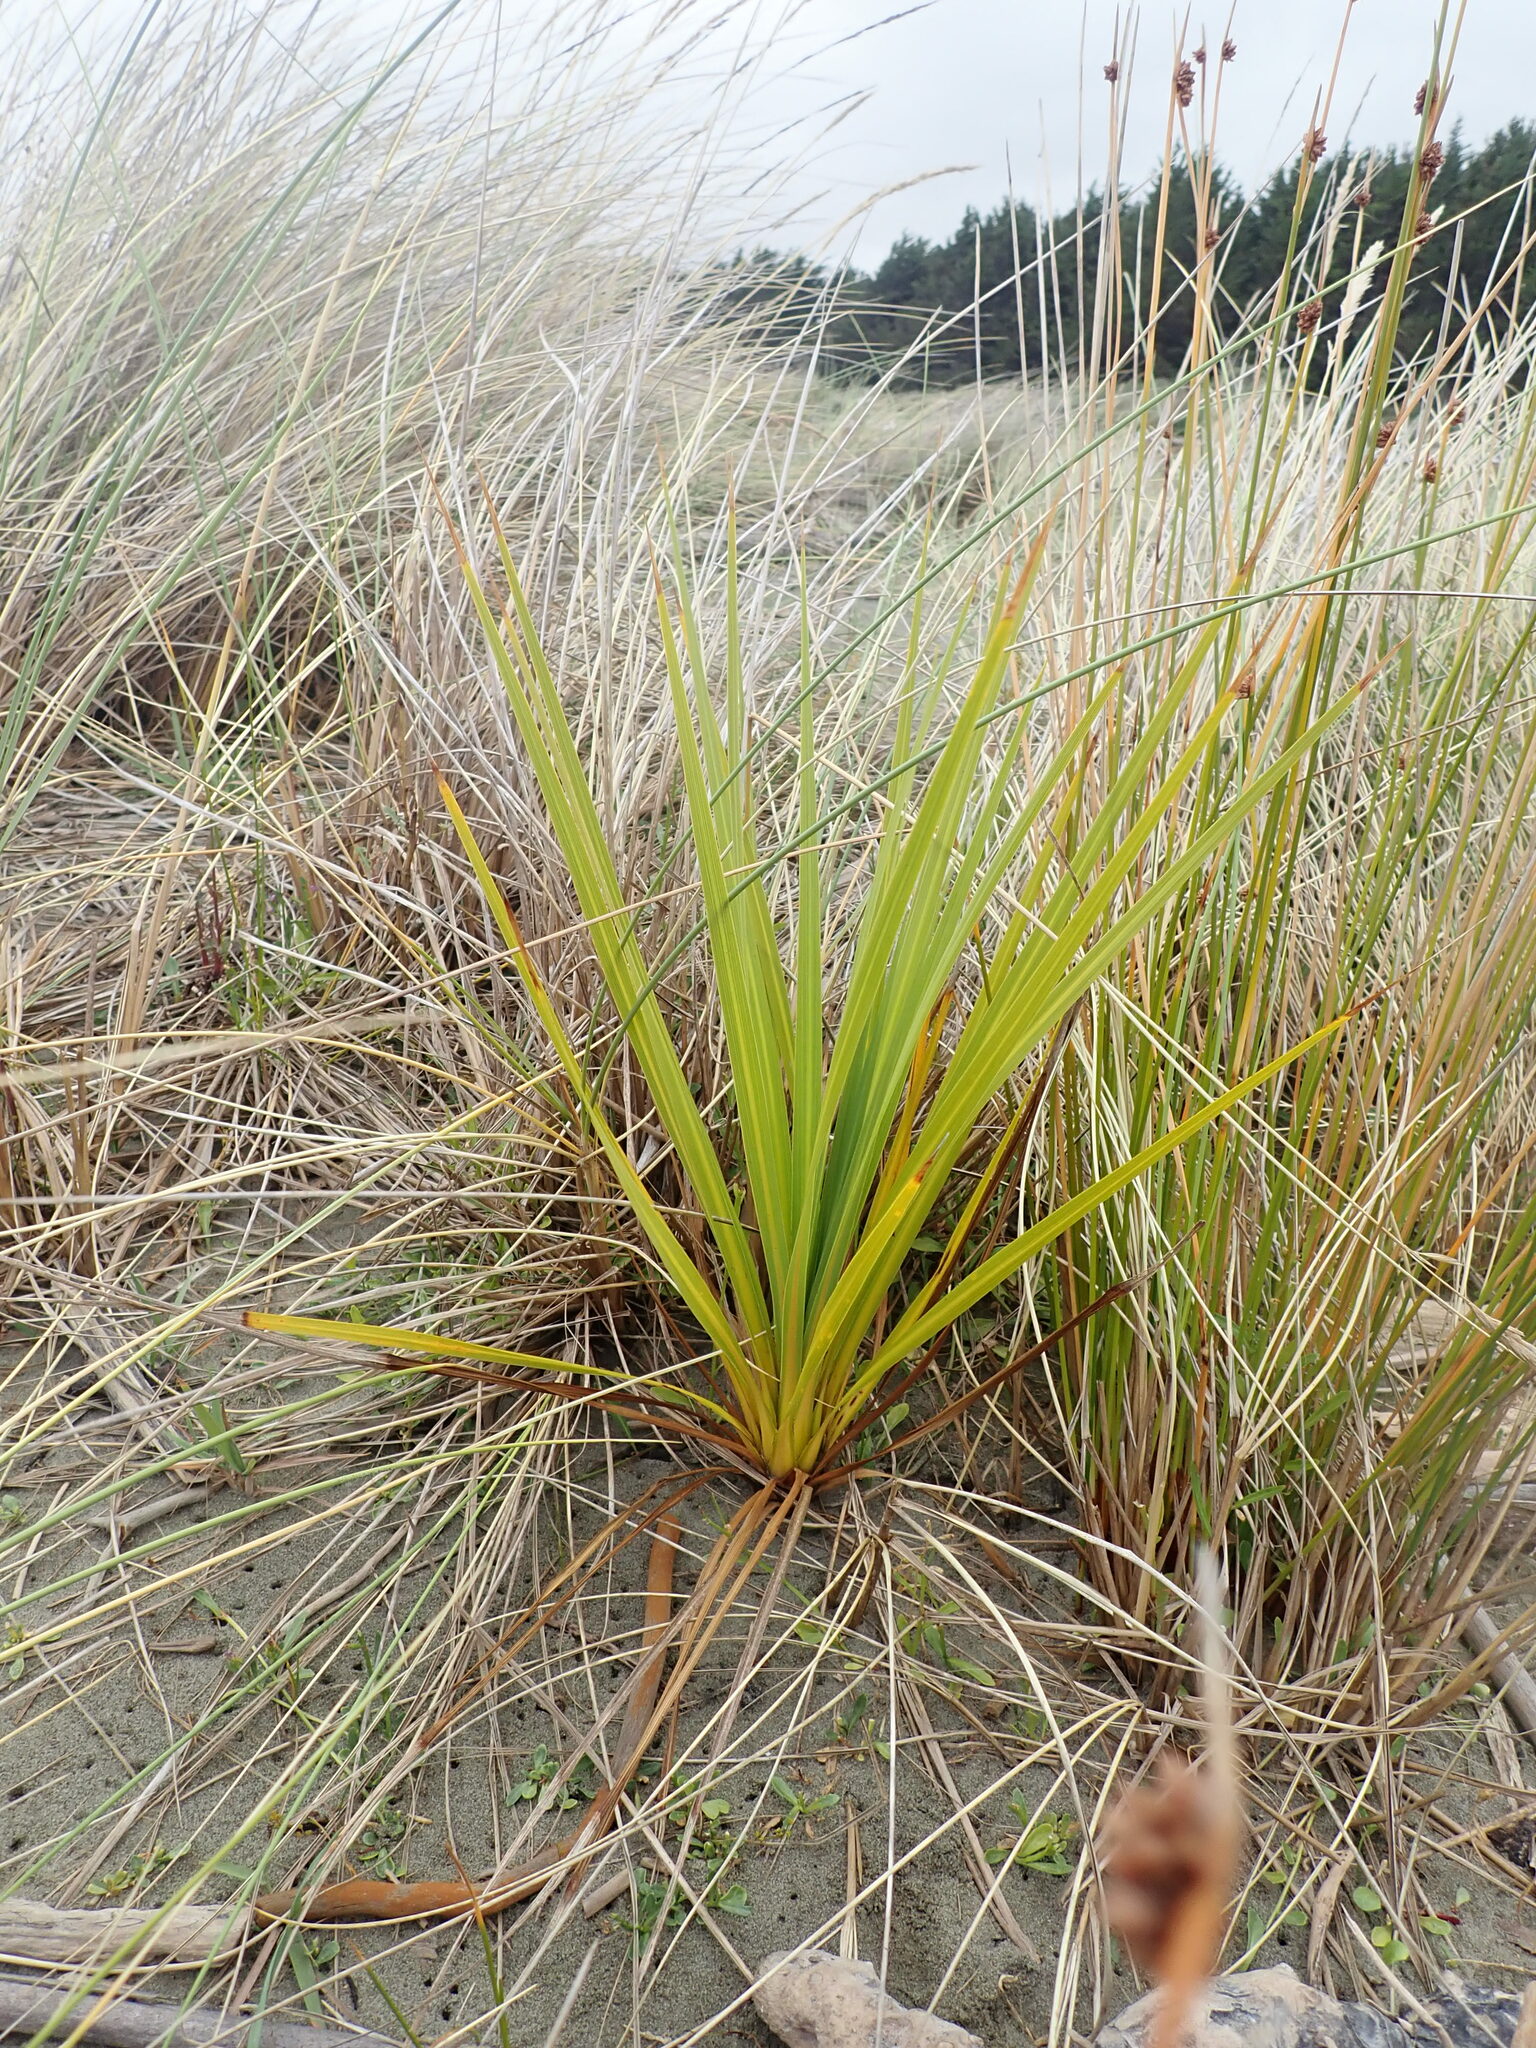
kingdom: Plantae
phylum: Tracheophyta
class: Liliopsida
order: Asparagales
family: Asparagaceae
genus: Cordyline
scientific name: Cordyline australis
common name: Cabbage-palm
